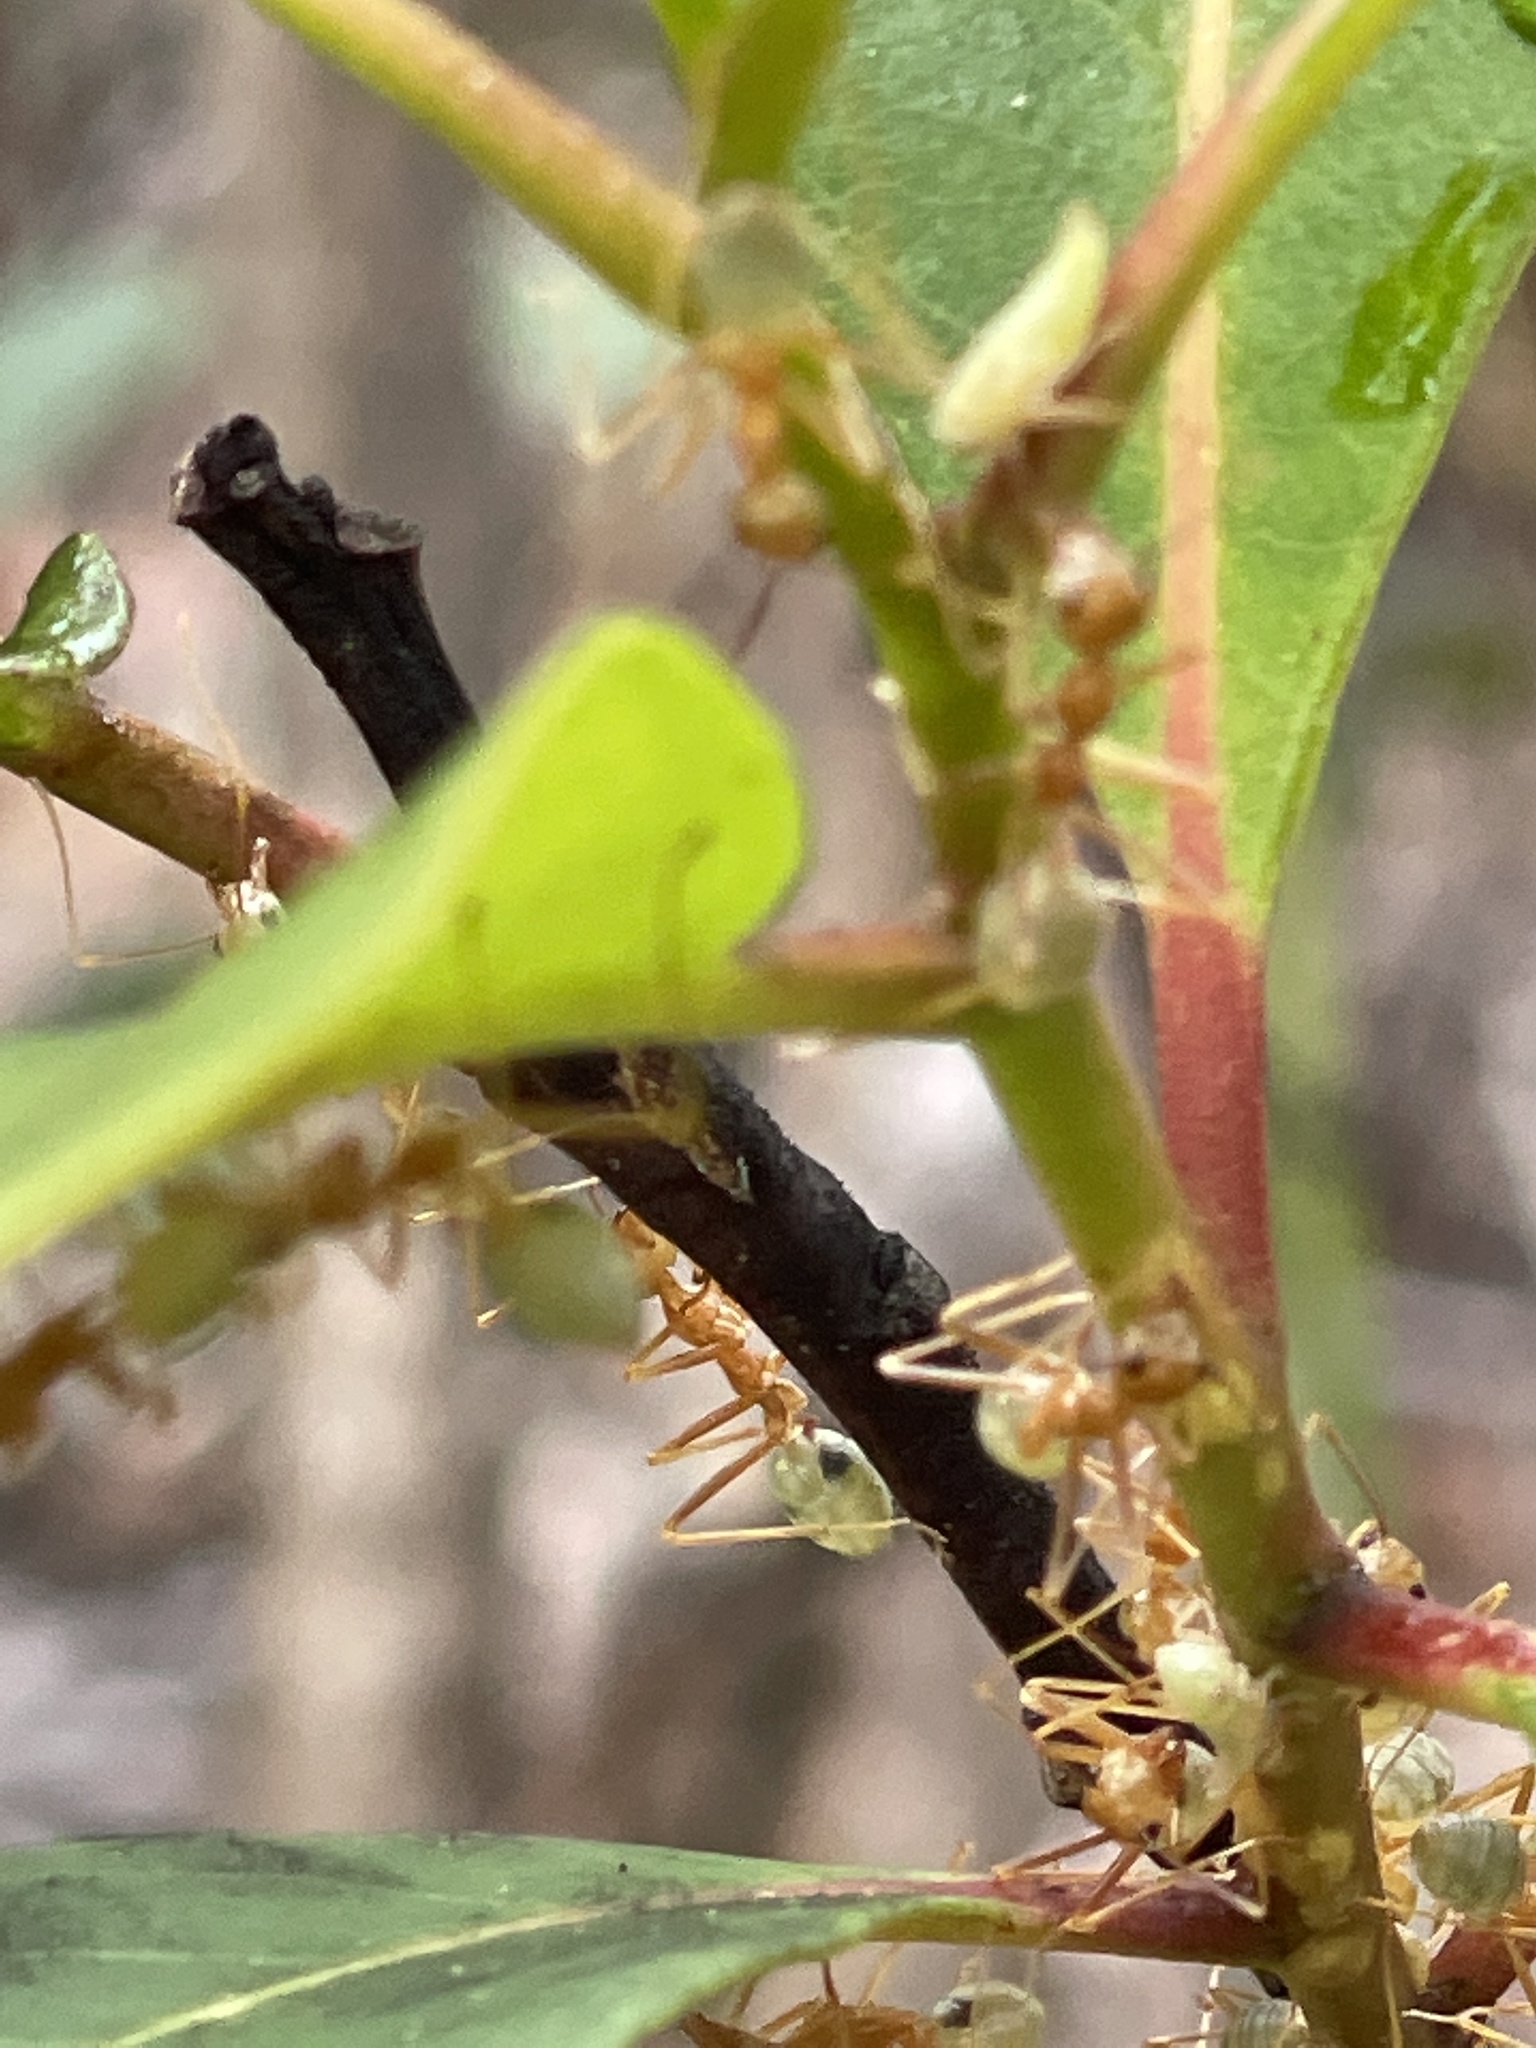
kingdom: Animalia
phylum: Arthropoda
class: Insecta
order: Hymenoptera
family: Formicidae
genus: Oecophylla
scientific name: Oecophylla smaragdina
